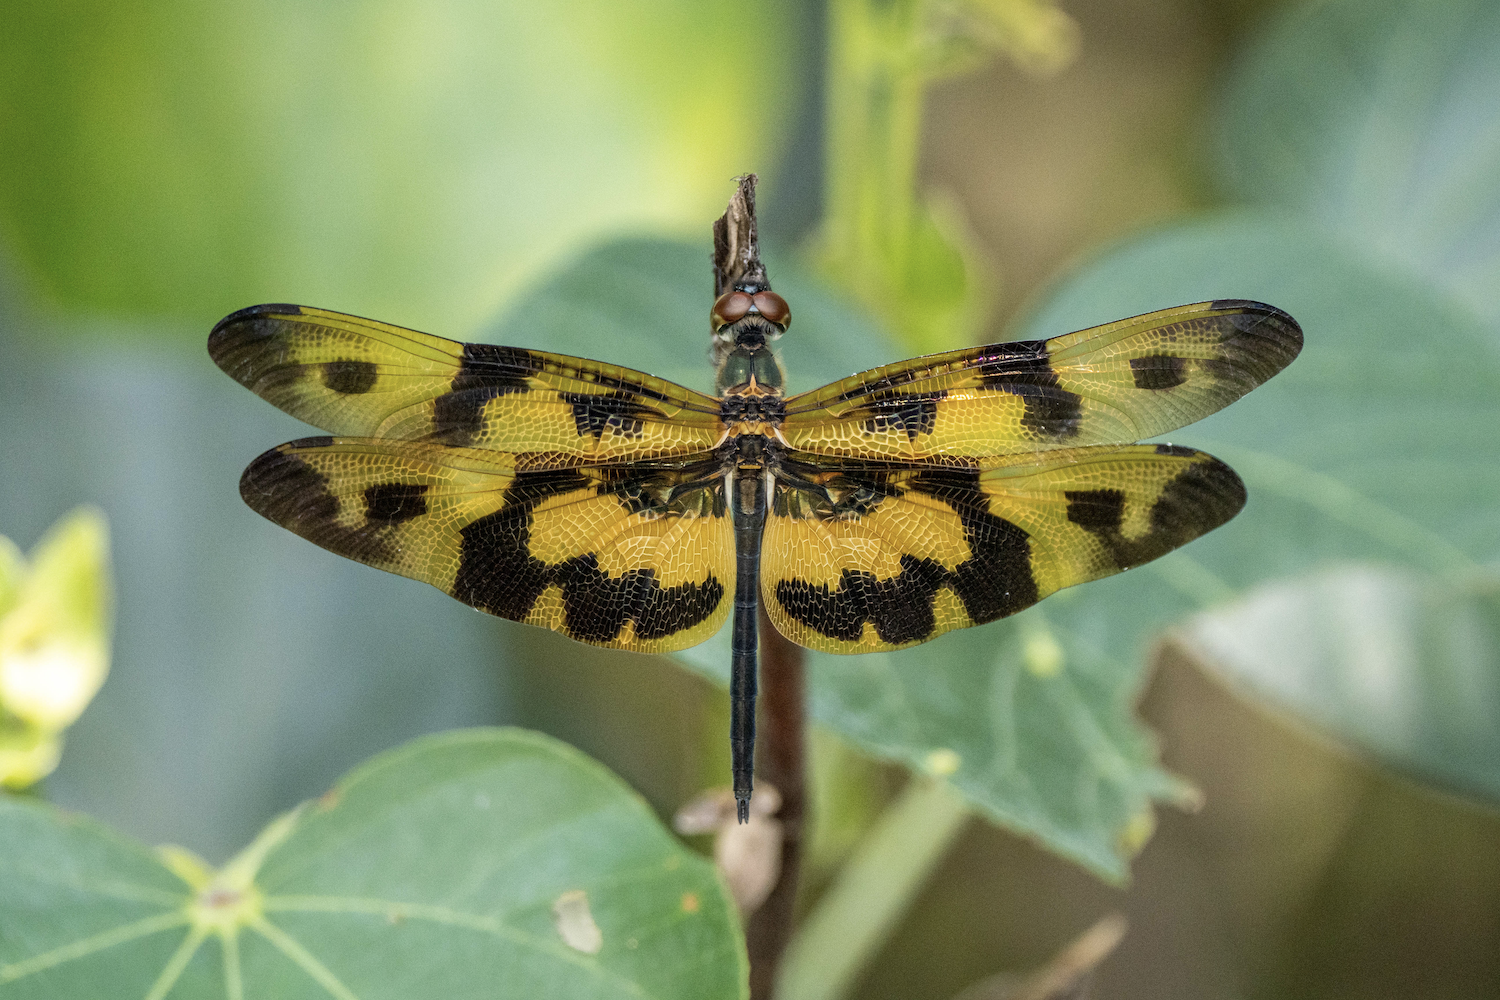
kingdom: Animalia
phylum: Arthropoda
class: Insecta
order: Odonata
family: Libellulidae
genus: Rhyothemis
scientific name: Rhyothemis variegata
